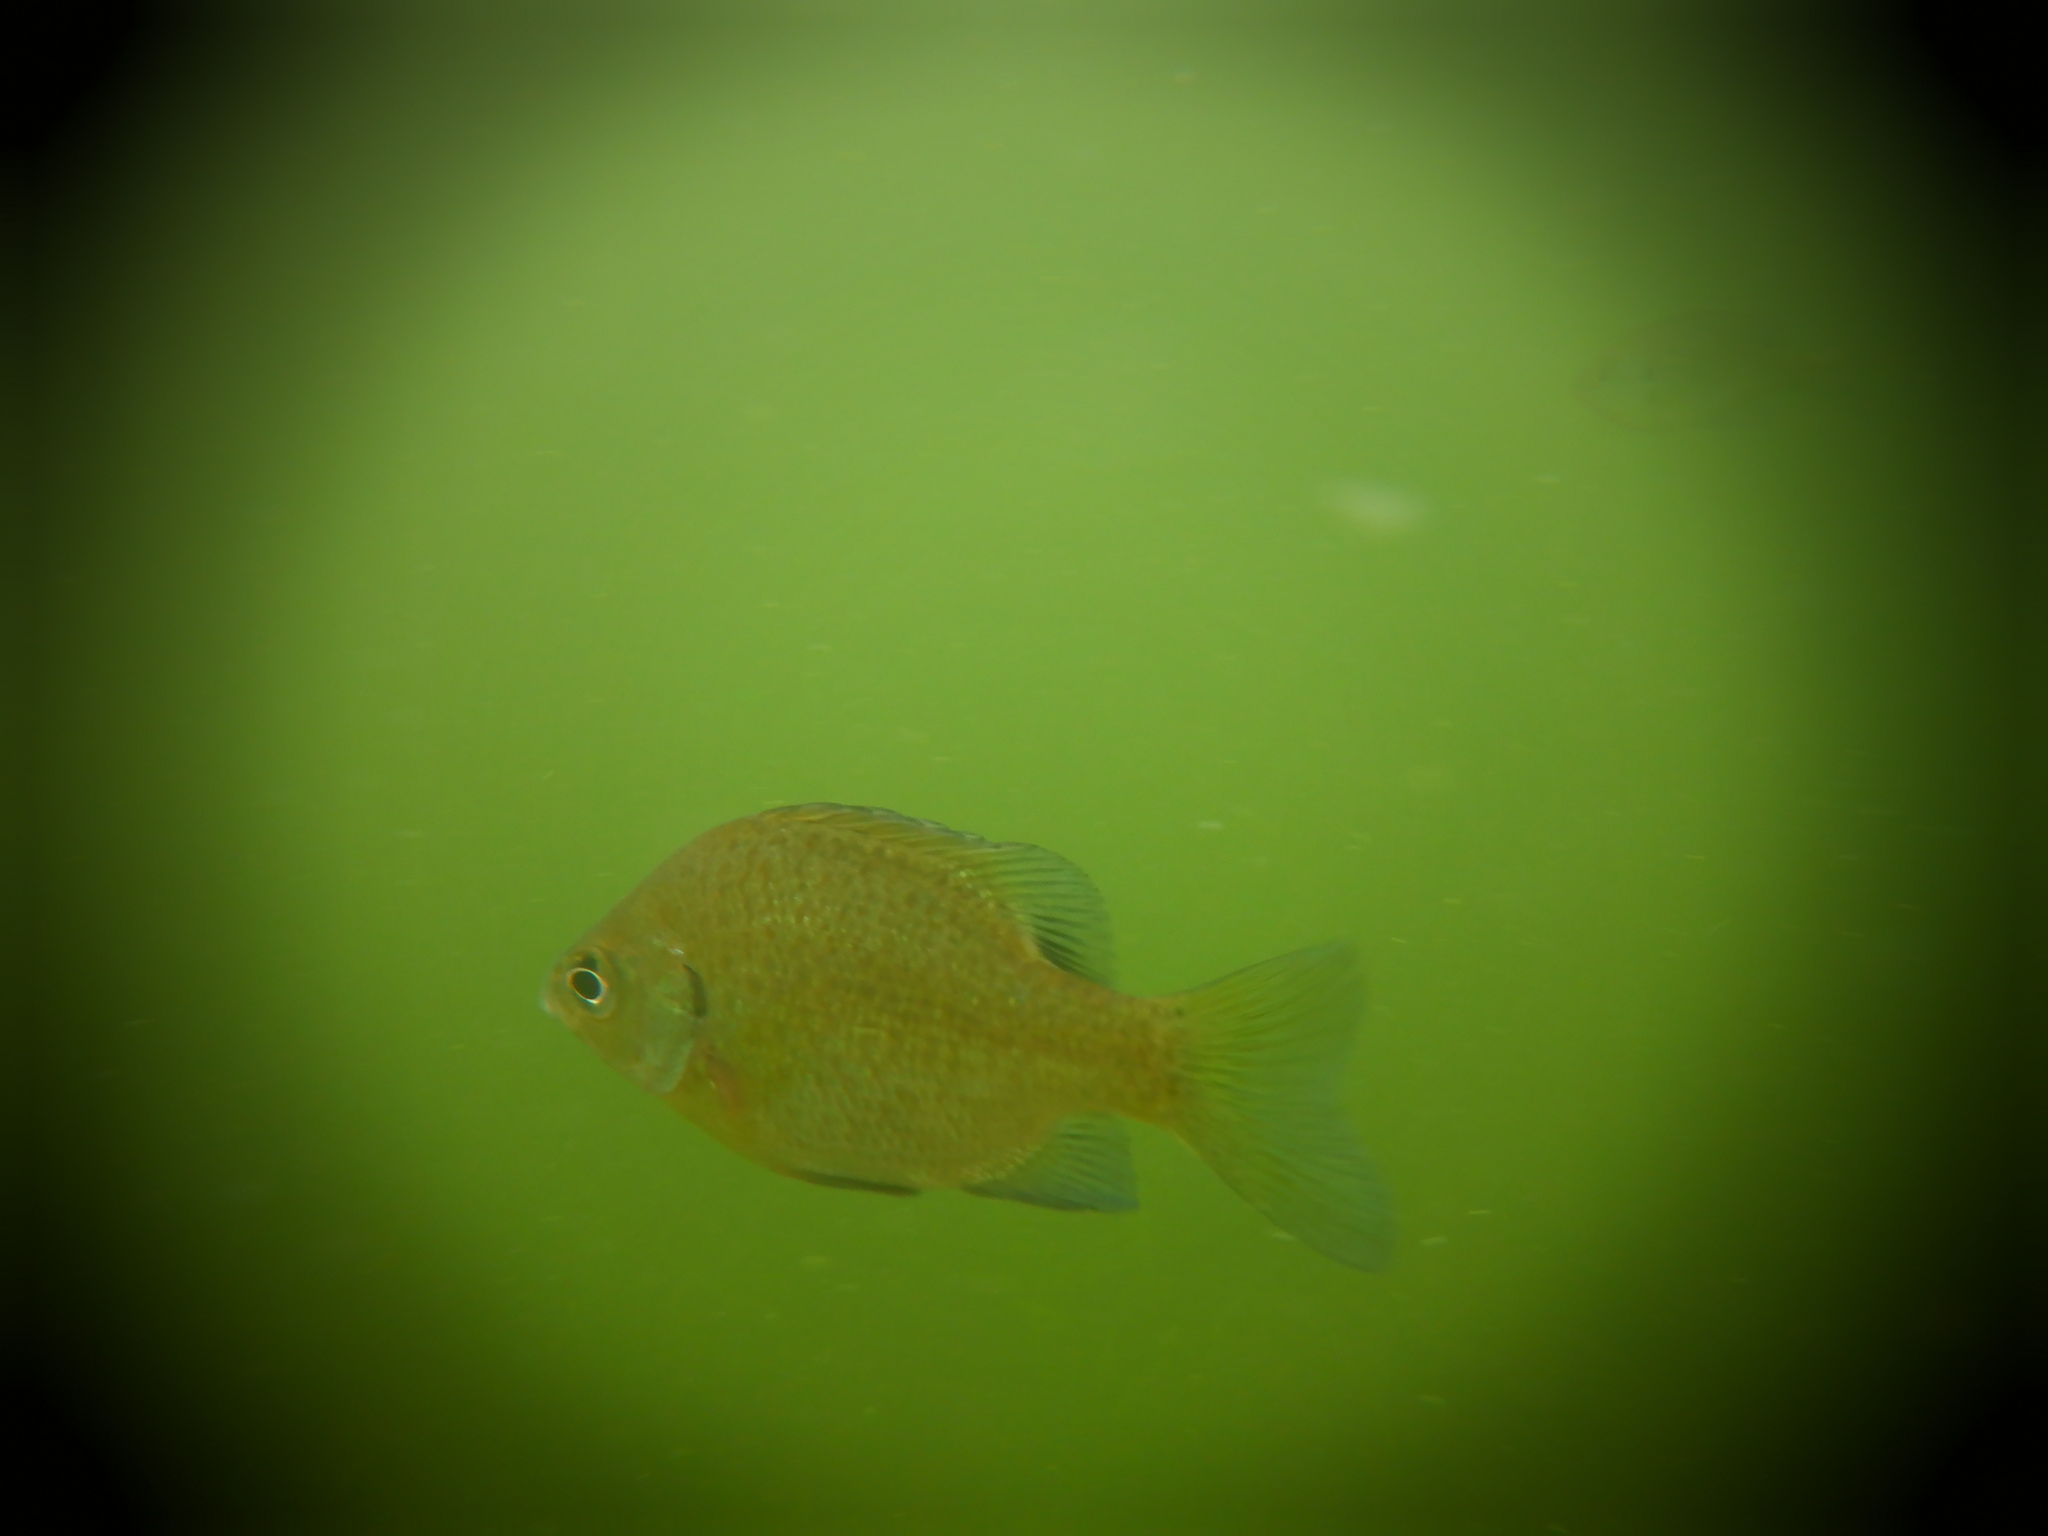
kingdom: Animalia
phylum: Chordata
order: Perciformes
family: Centrarchidae
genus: Lepomis
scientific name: Lepomis macrochirus
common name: Bluegill
